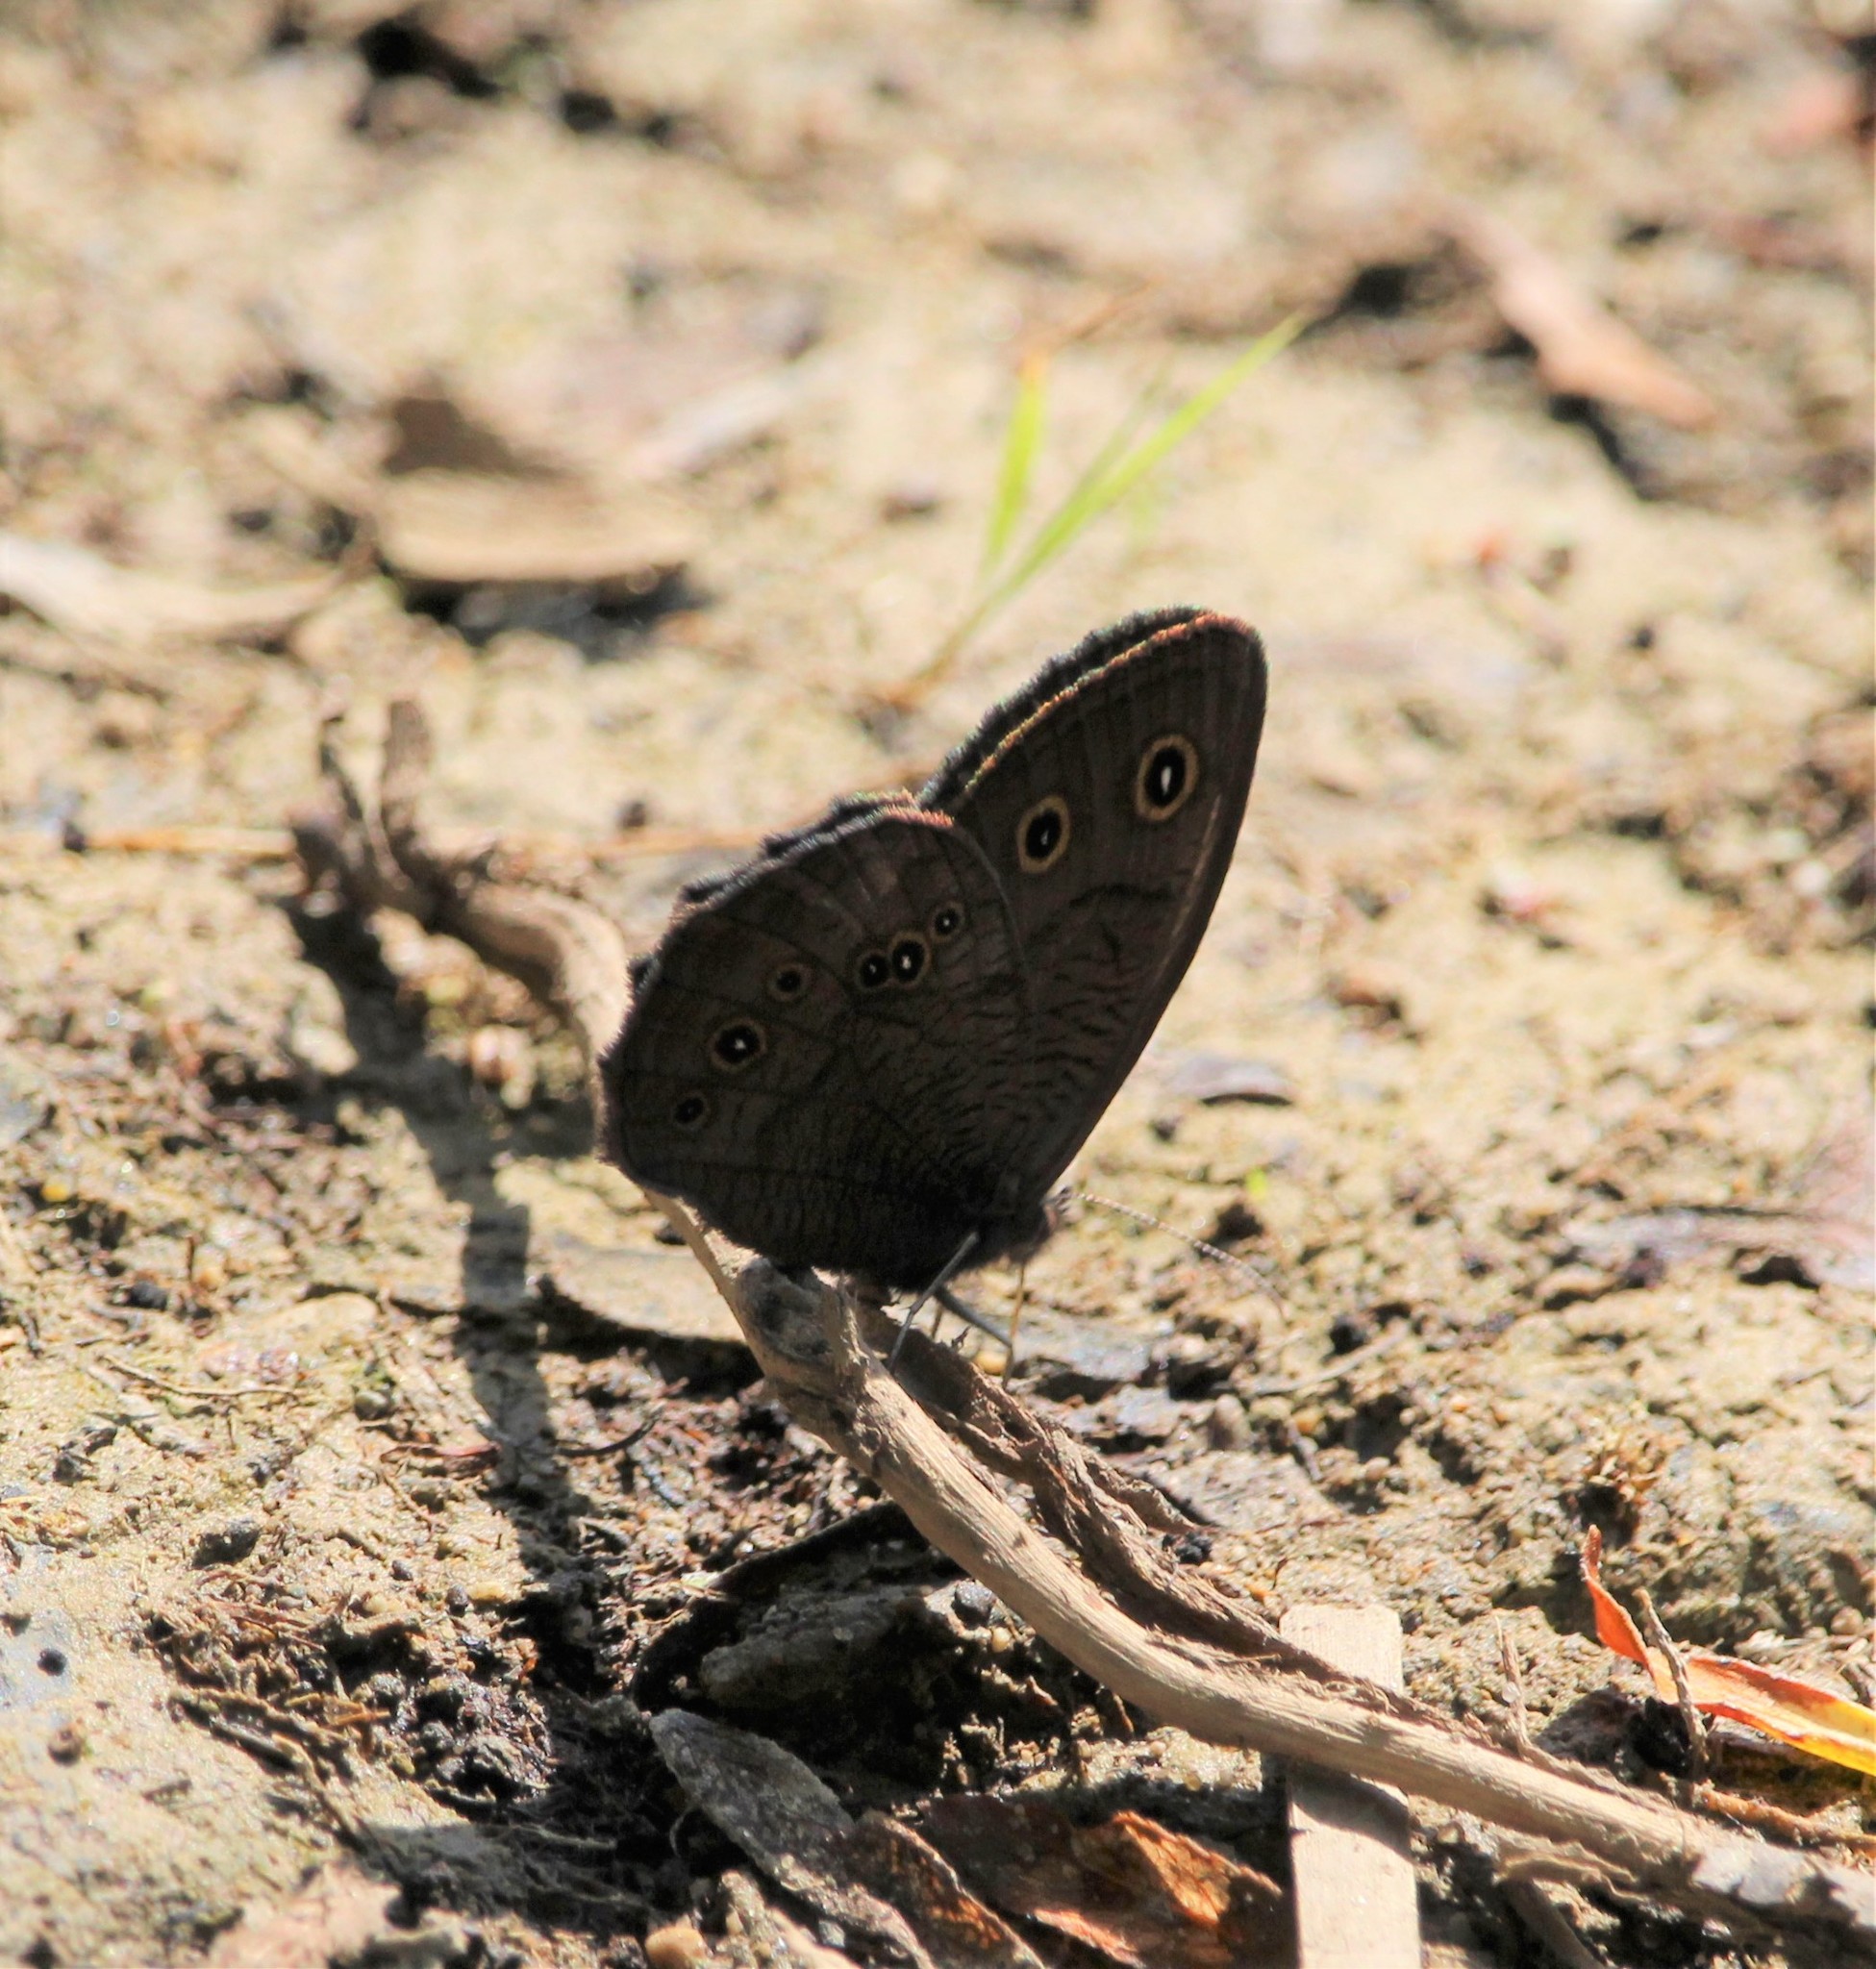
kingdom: Animalia
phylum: Arthropoda
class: Insecta
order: Lepidoptera
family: Nymphalidae
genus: Cercyonis
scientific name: Cercyonis pegala
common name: Common wood-nymph
